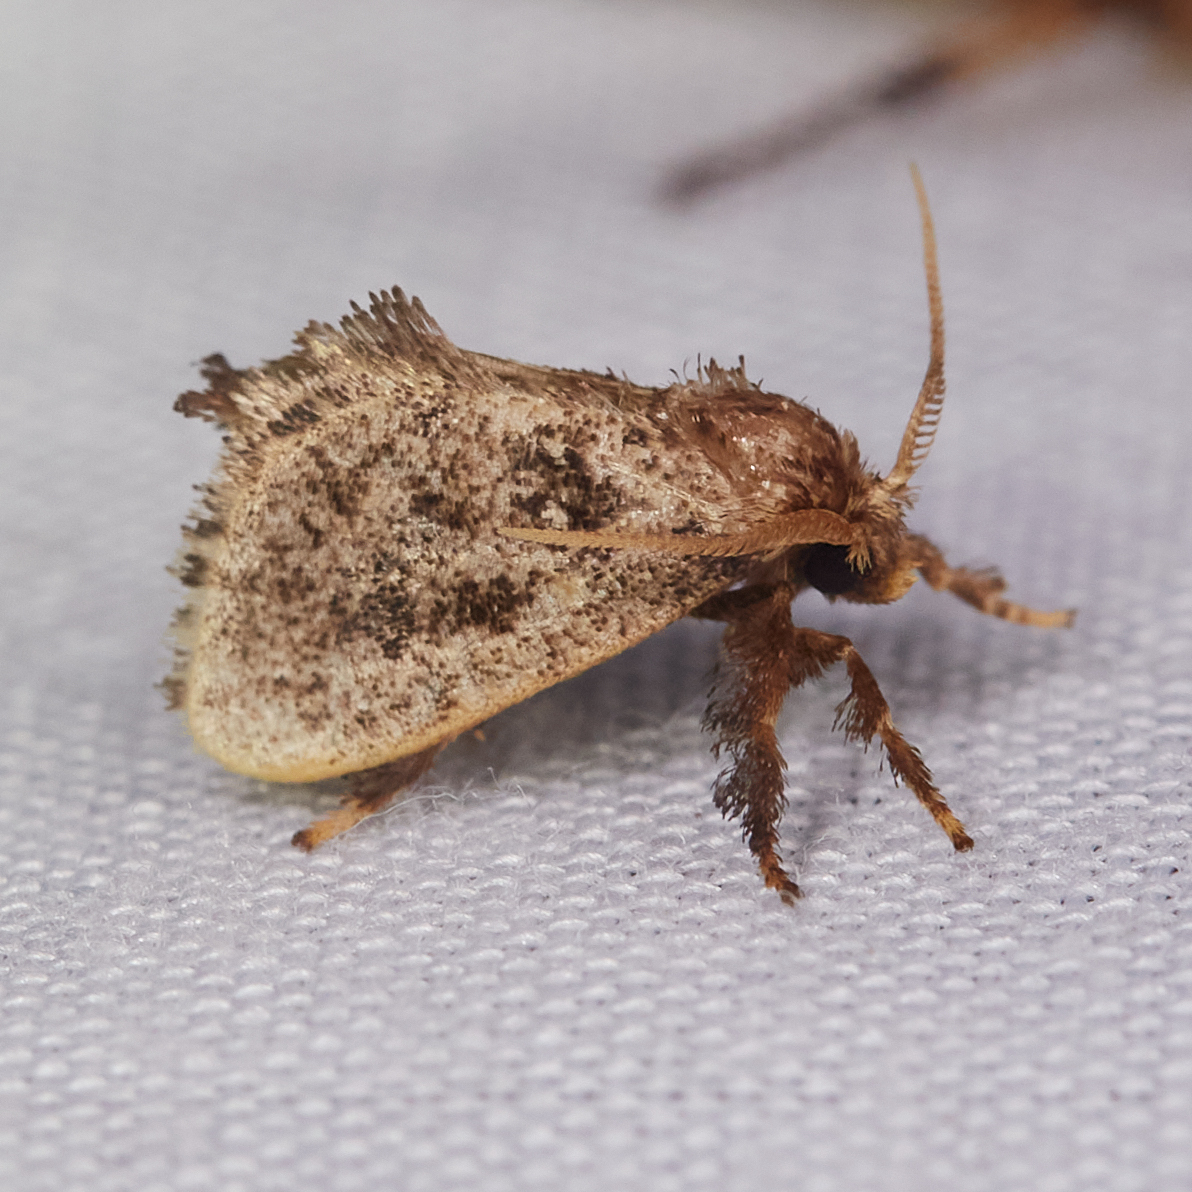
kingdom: Animalia
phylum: Arthropoda
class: Insecta
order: Lepidoptera
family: Limacodidae
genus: Euclea
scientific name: Euclea costaricana
